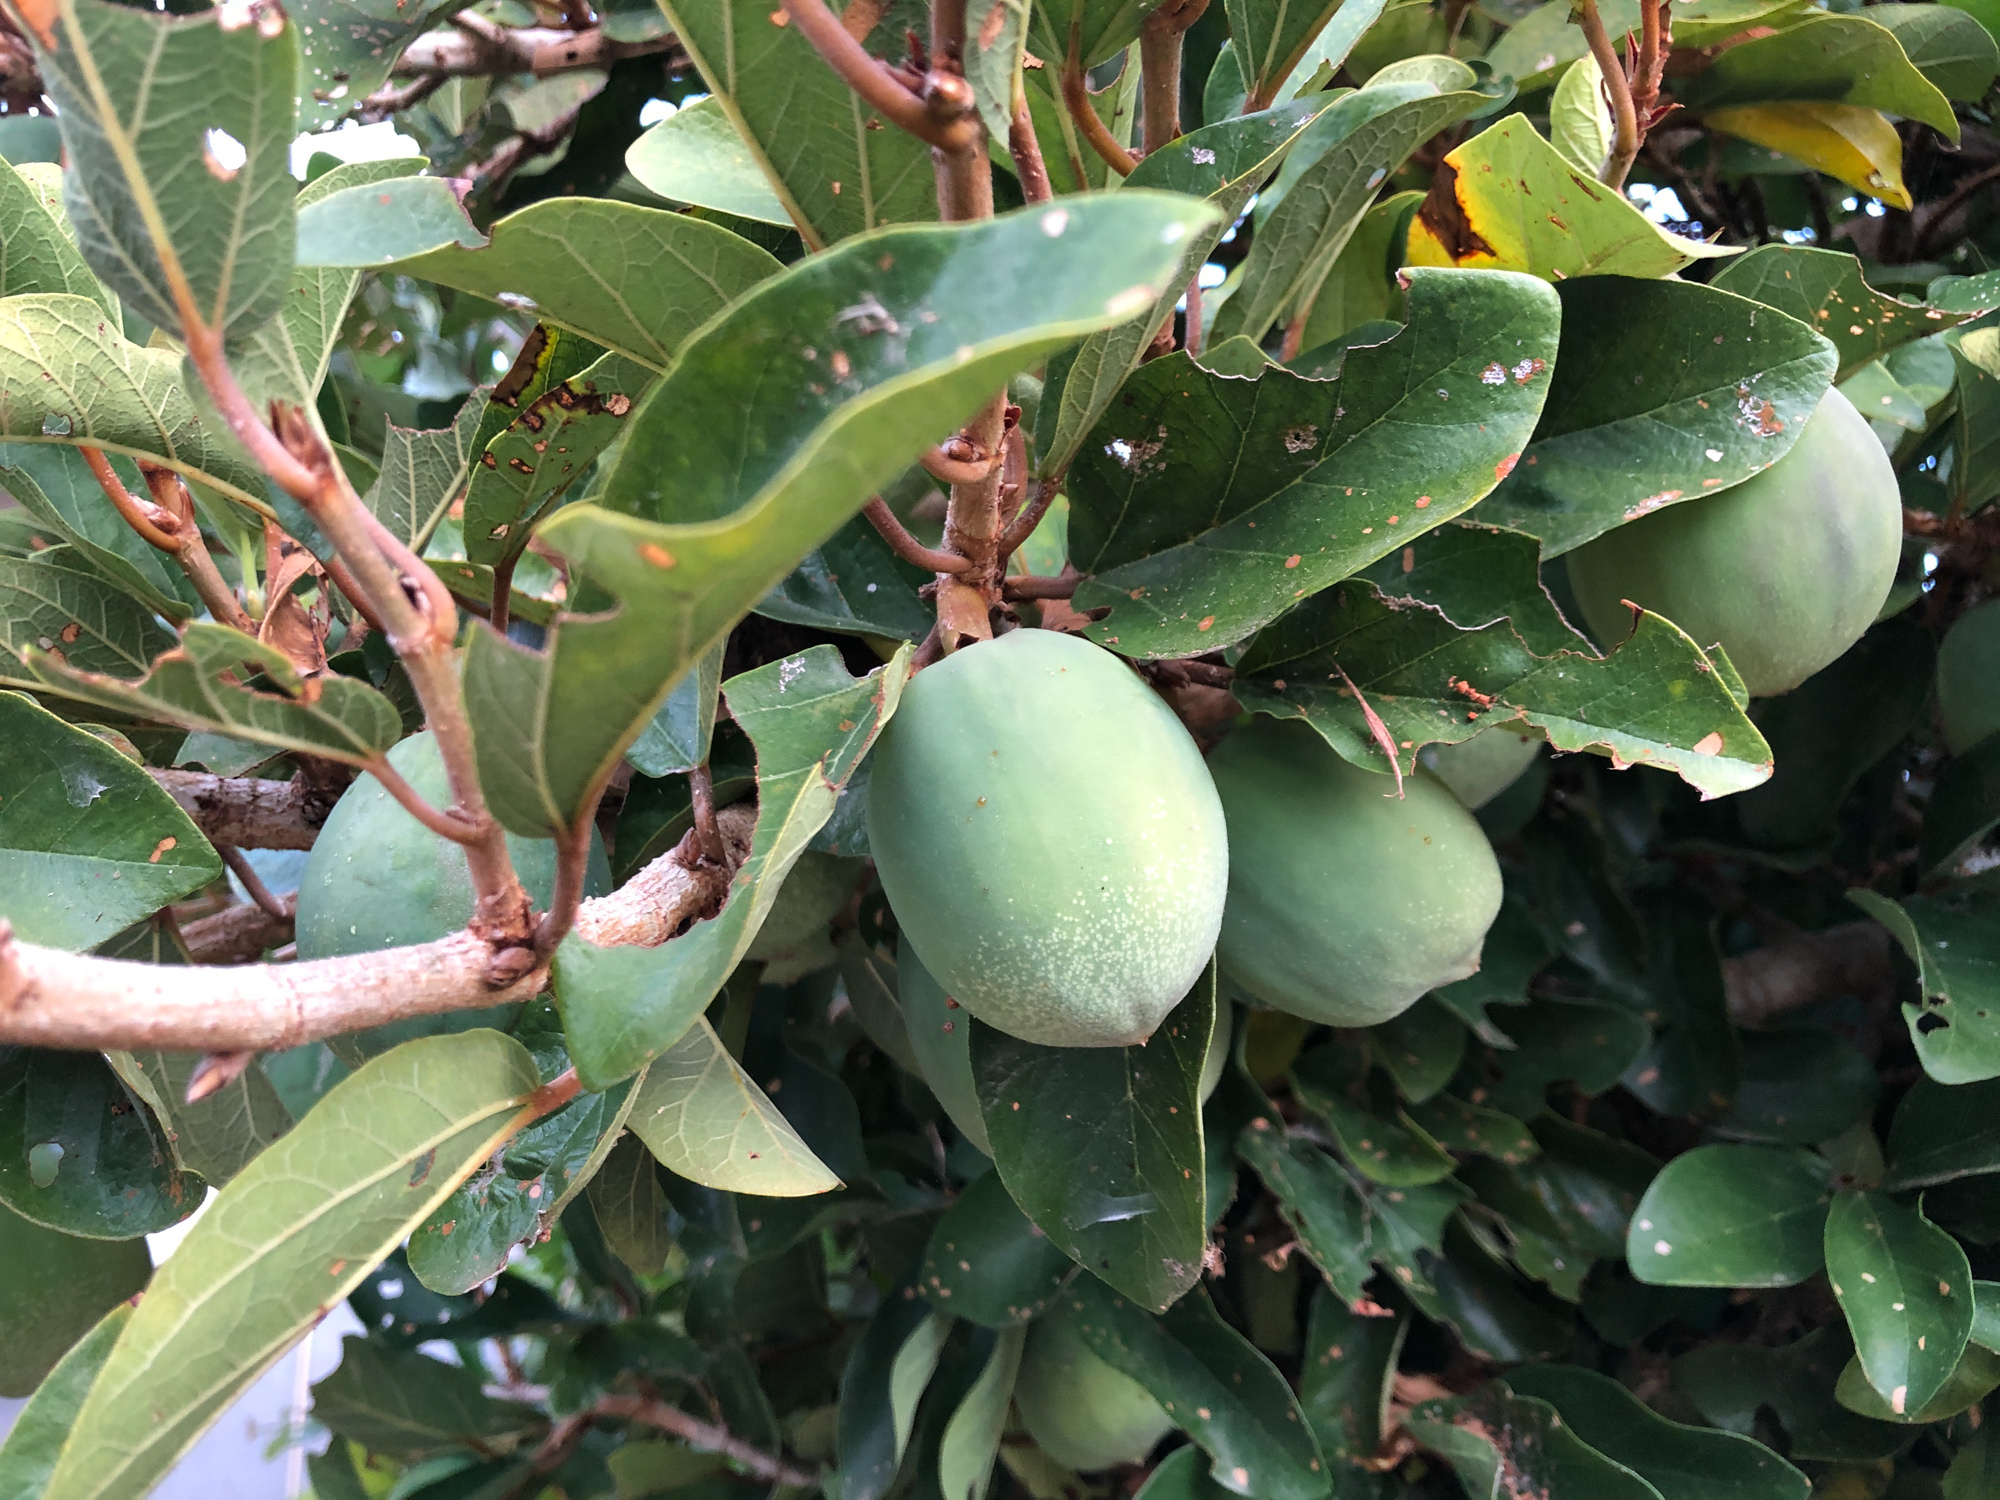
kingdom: Plantae
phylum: Tracheophyta
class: Magnoliopsida
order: Rosales
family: Moraceae
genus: Ficus
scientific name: Ficus pumila
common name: Climbingfig
